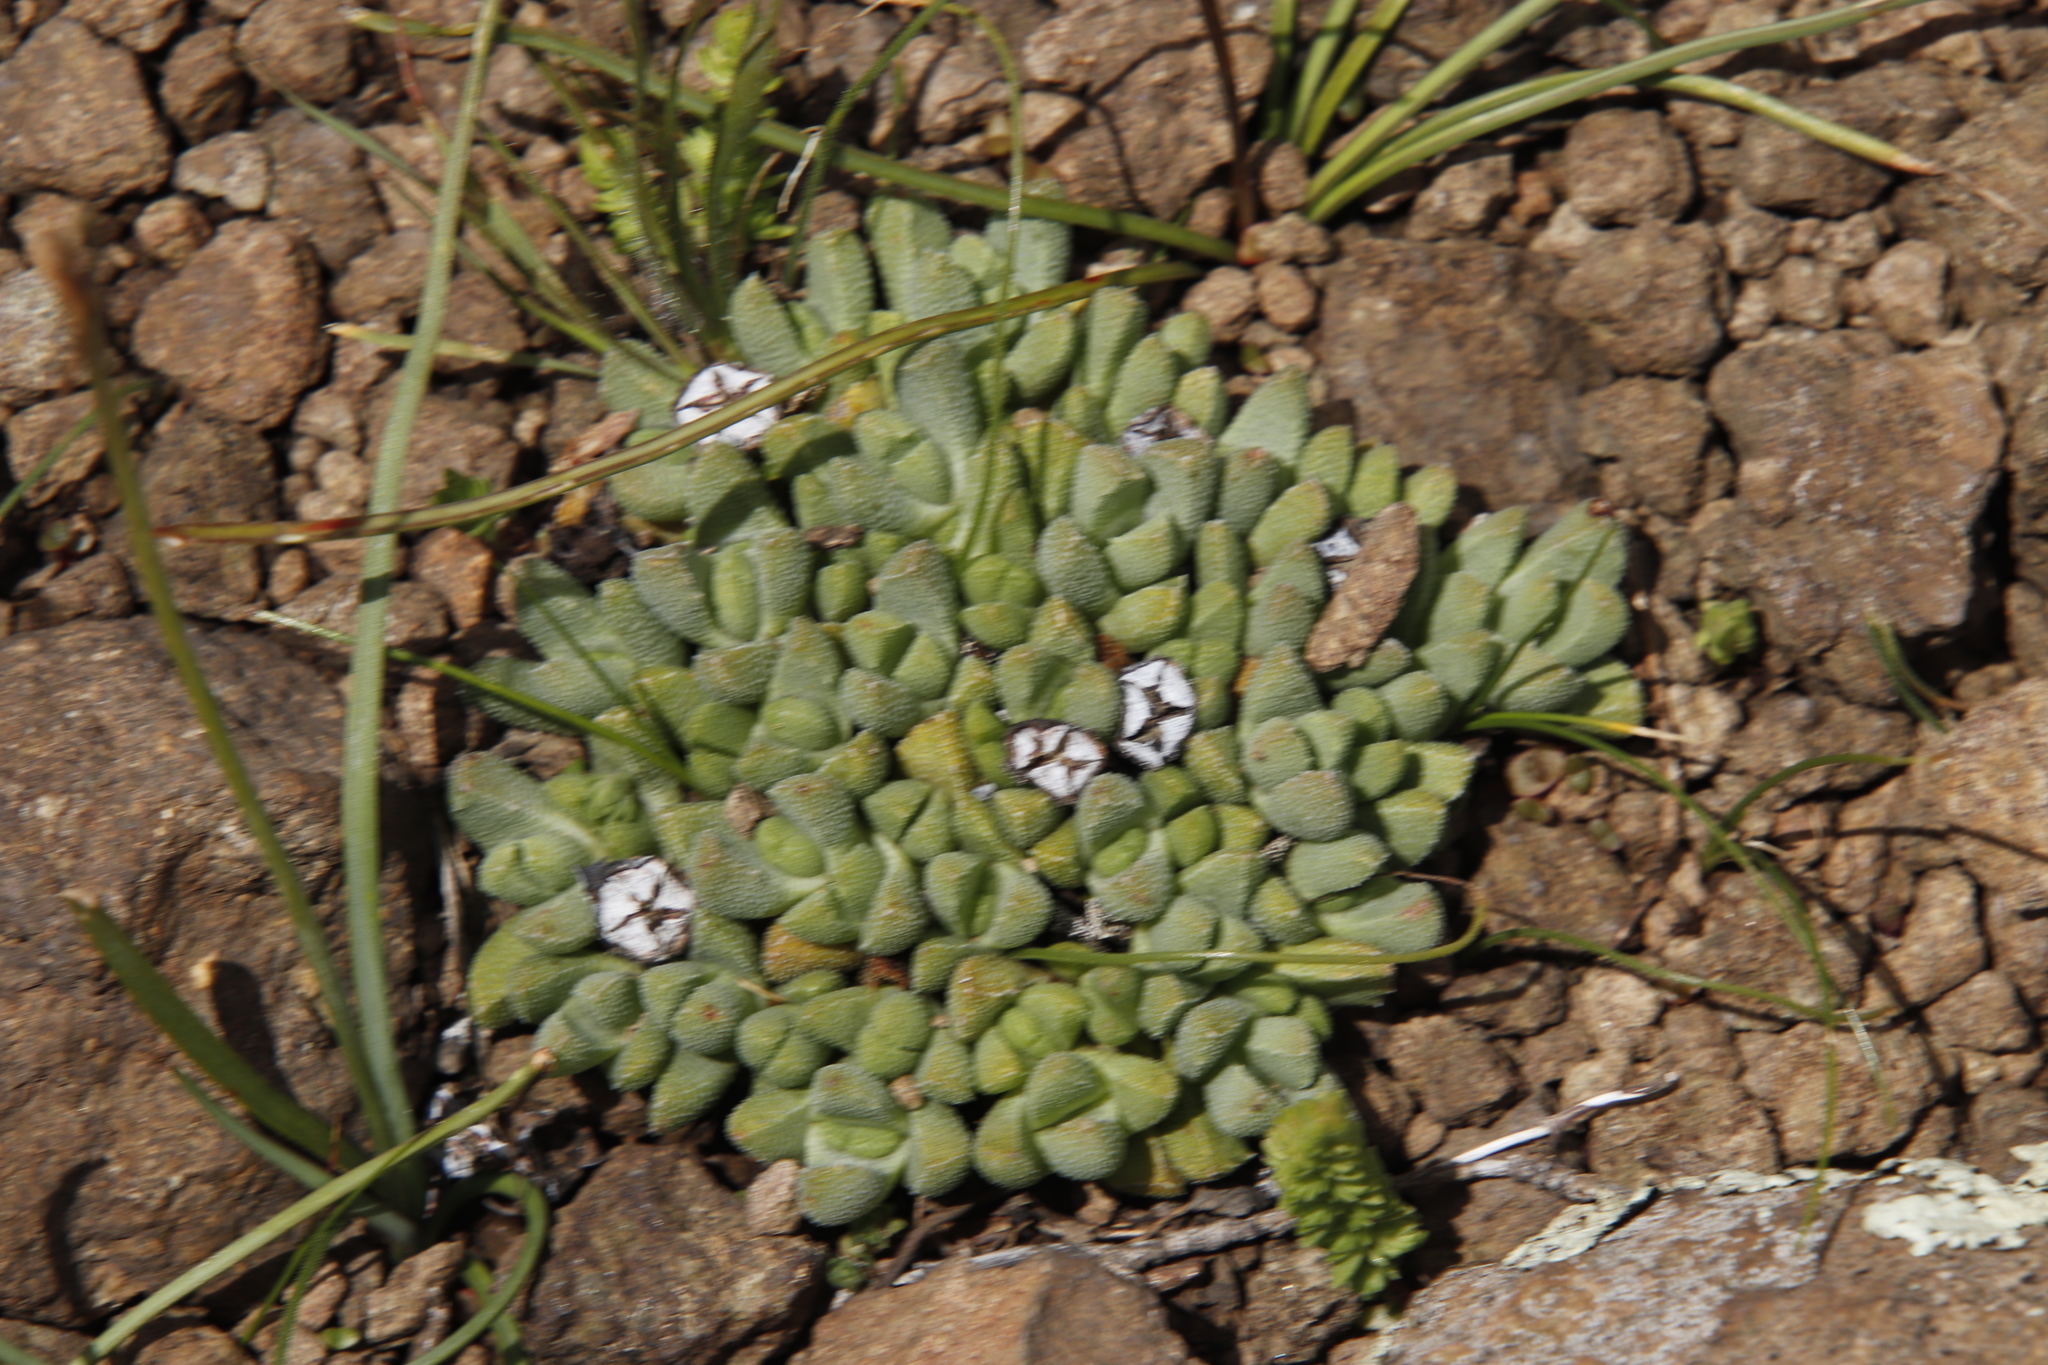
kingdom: Plantae
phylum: Tracheophyta
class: Magnoliopsida
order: Caryophyllales
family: Aizoaceae
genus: Stomatium
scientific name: Stomatium gerstneri
